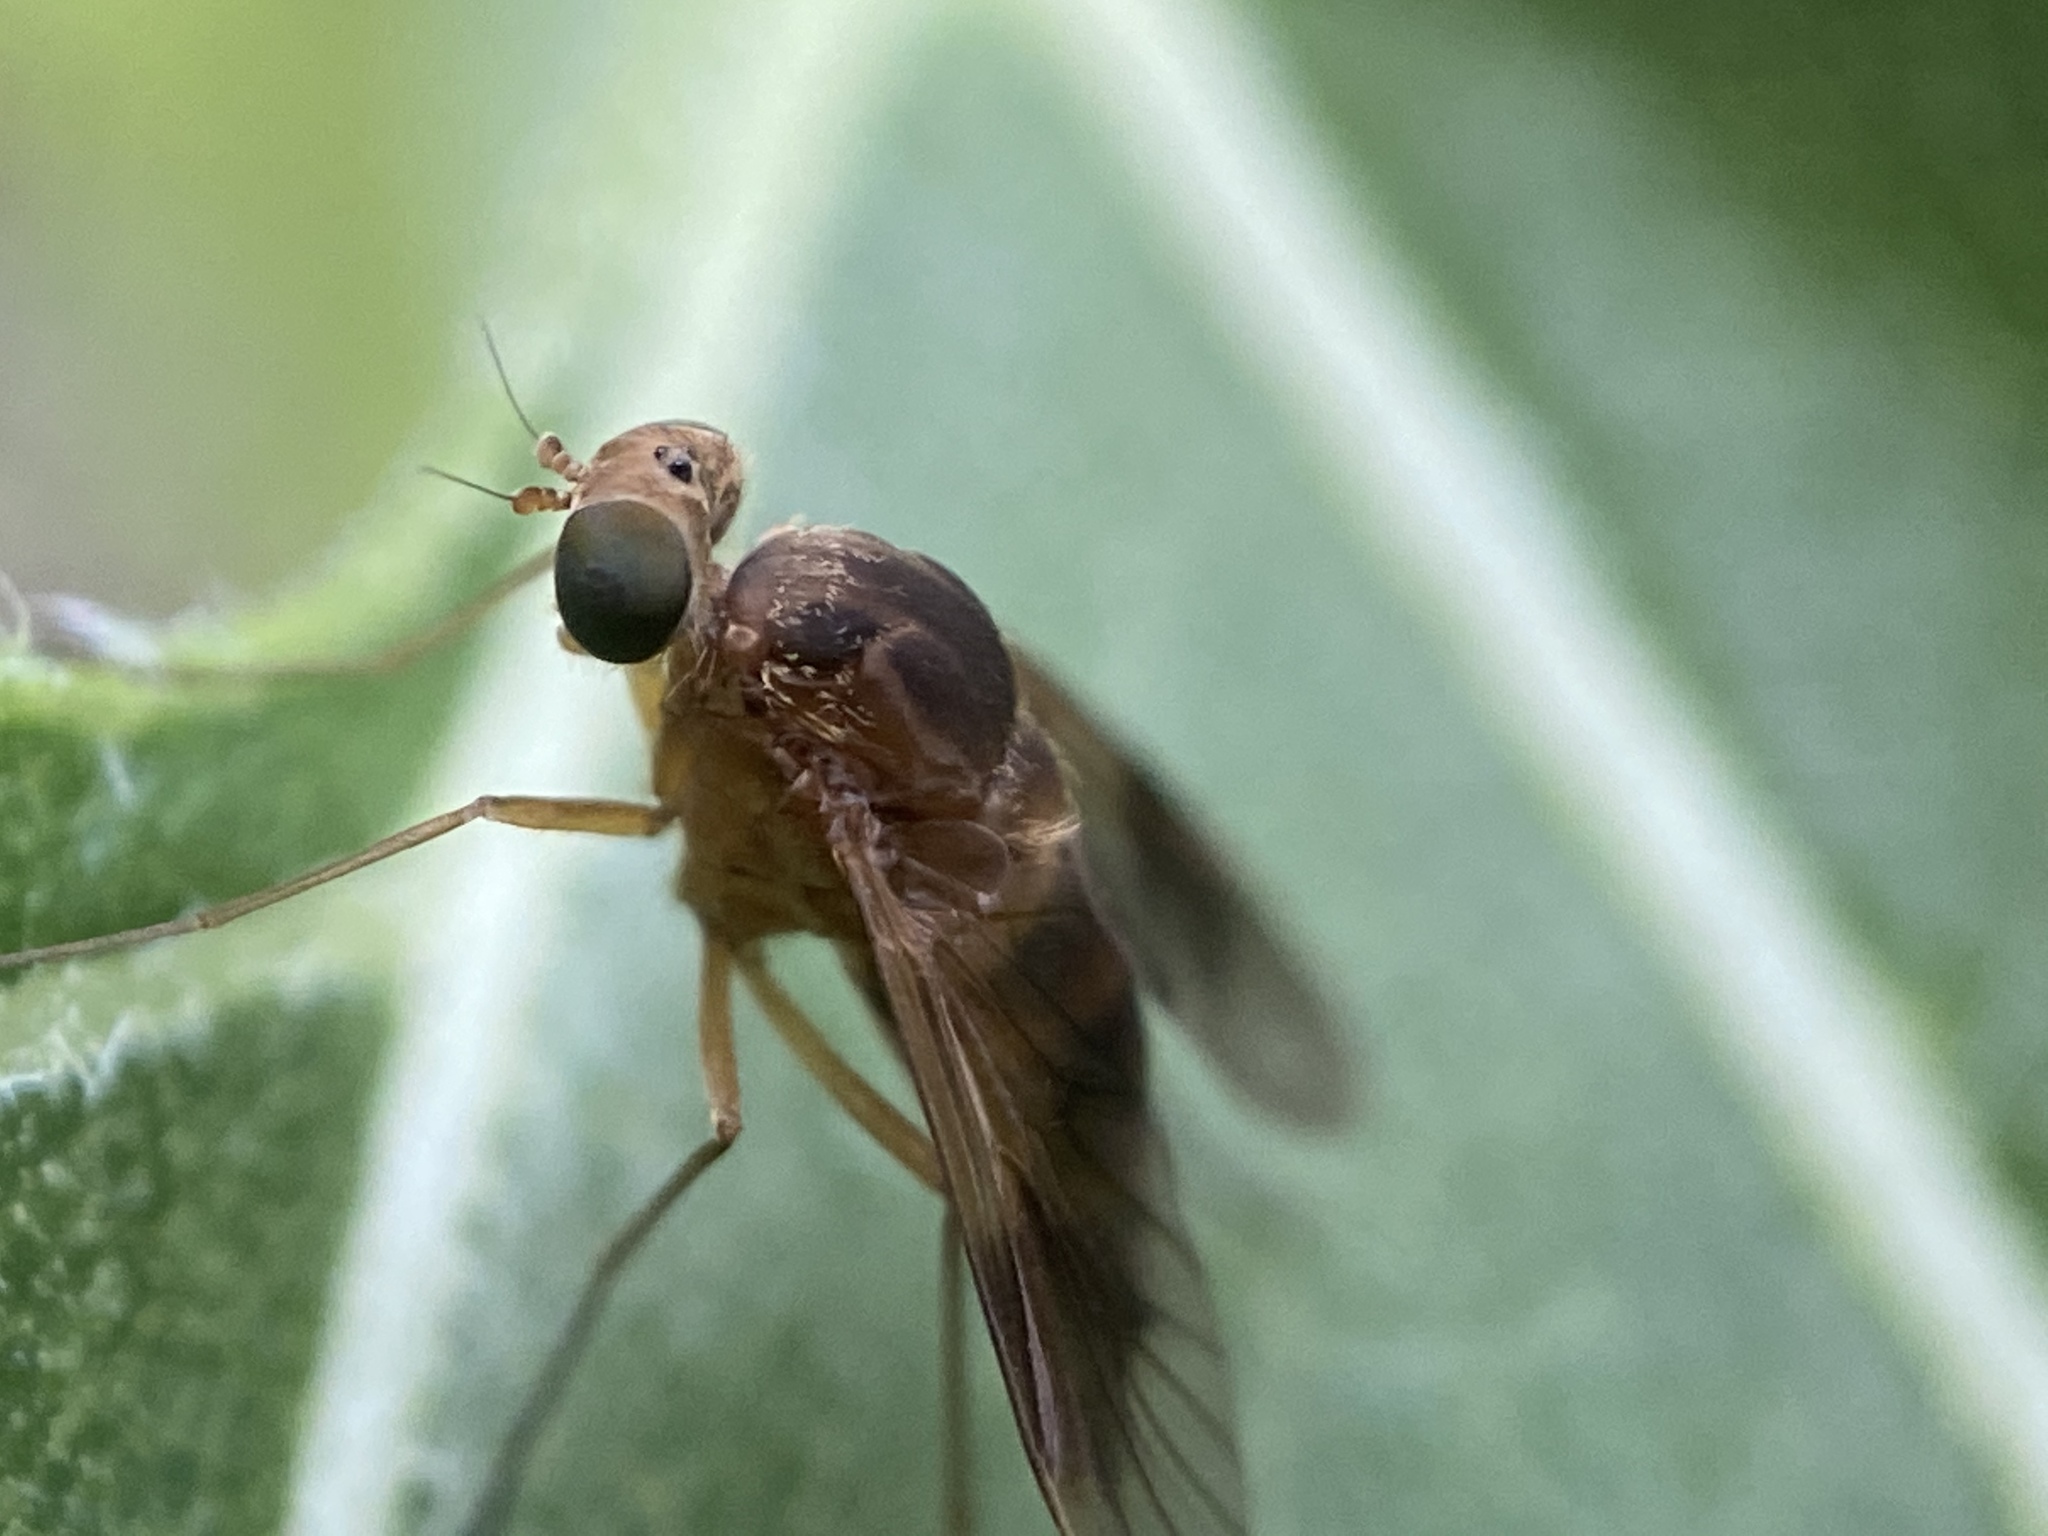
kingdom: Animalia
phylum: Arthropoda
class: Insecta
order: Diptera
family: Rhagionidae
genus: Chrysopilus
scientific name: Chrysopilus quadratus
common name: Quadrate snipe fly
